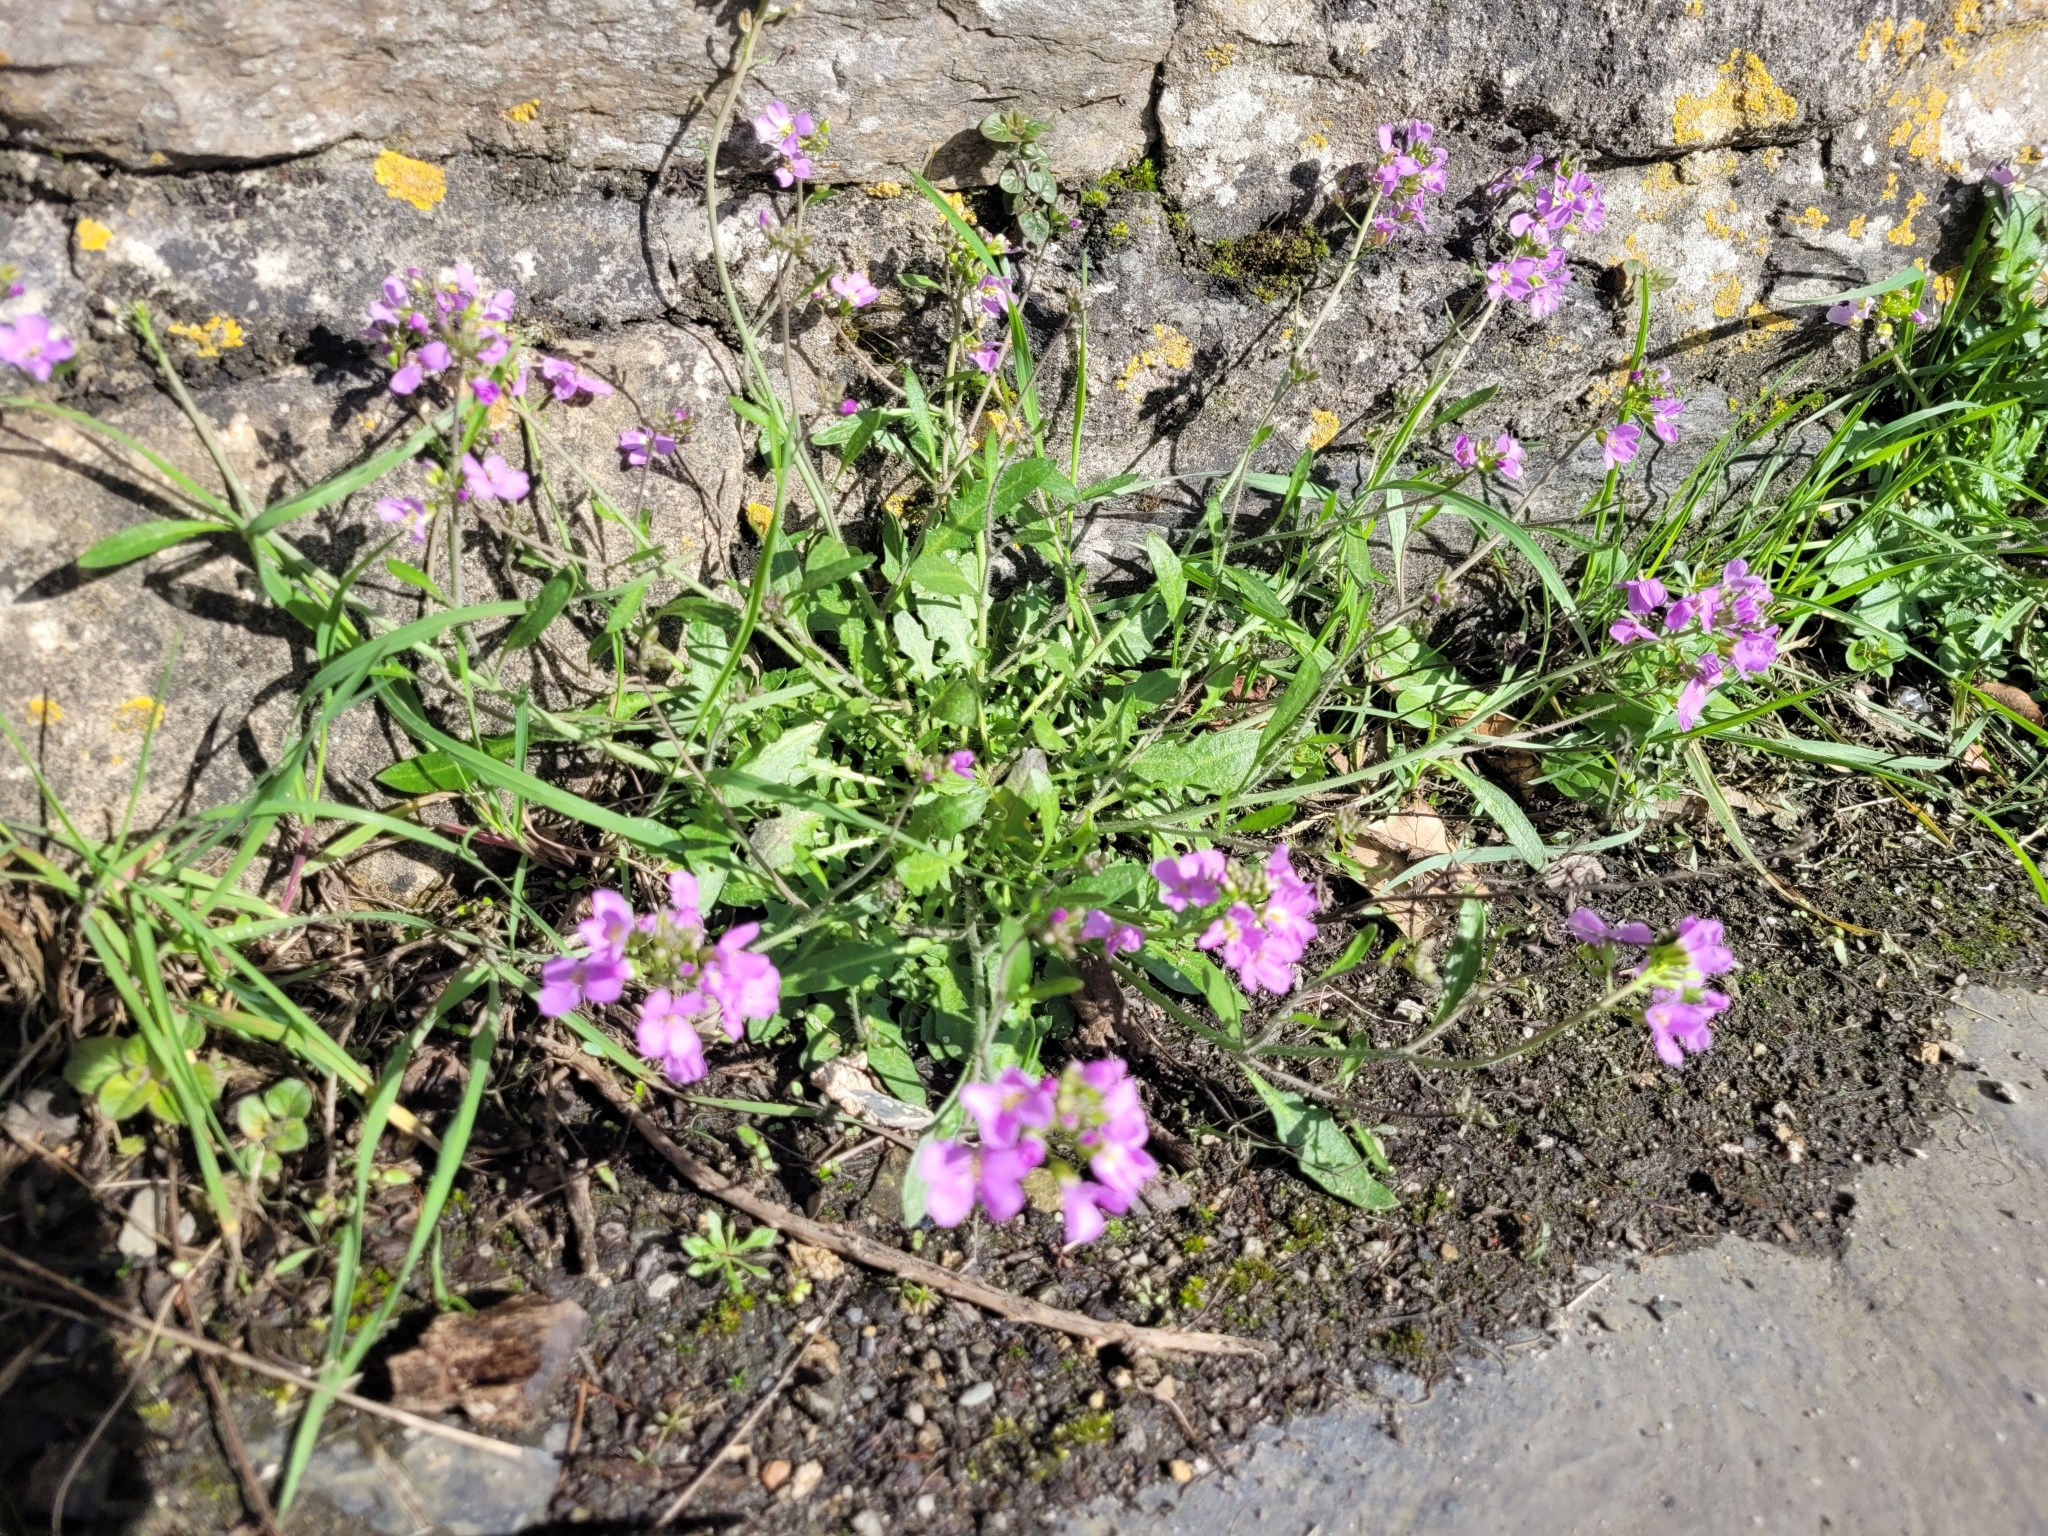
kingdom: Plantae
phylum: Tracheophyta
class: Magnoliopsida
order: Brassicales
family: Brassicaceae
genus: Arabidopsis
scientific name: Arabidopsis arenosa
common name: Sand rock-cress
